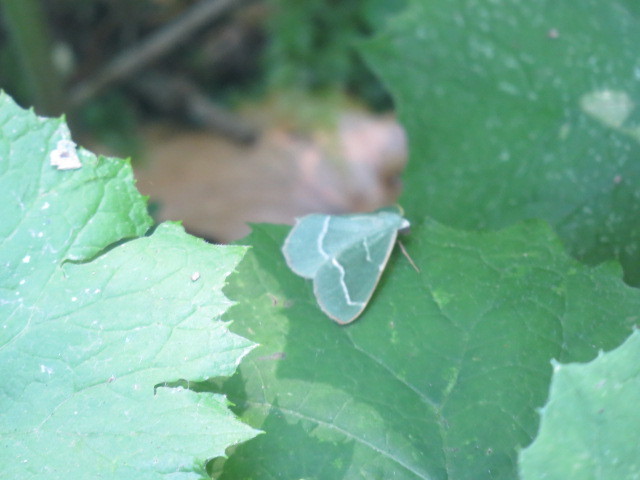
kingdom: Animalia
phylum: Arthropoda
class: Insecta
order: Lepidoptera
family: Geometridae
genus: Hylaea
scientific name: Hylaea fasciaria
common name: Barred red
